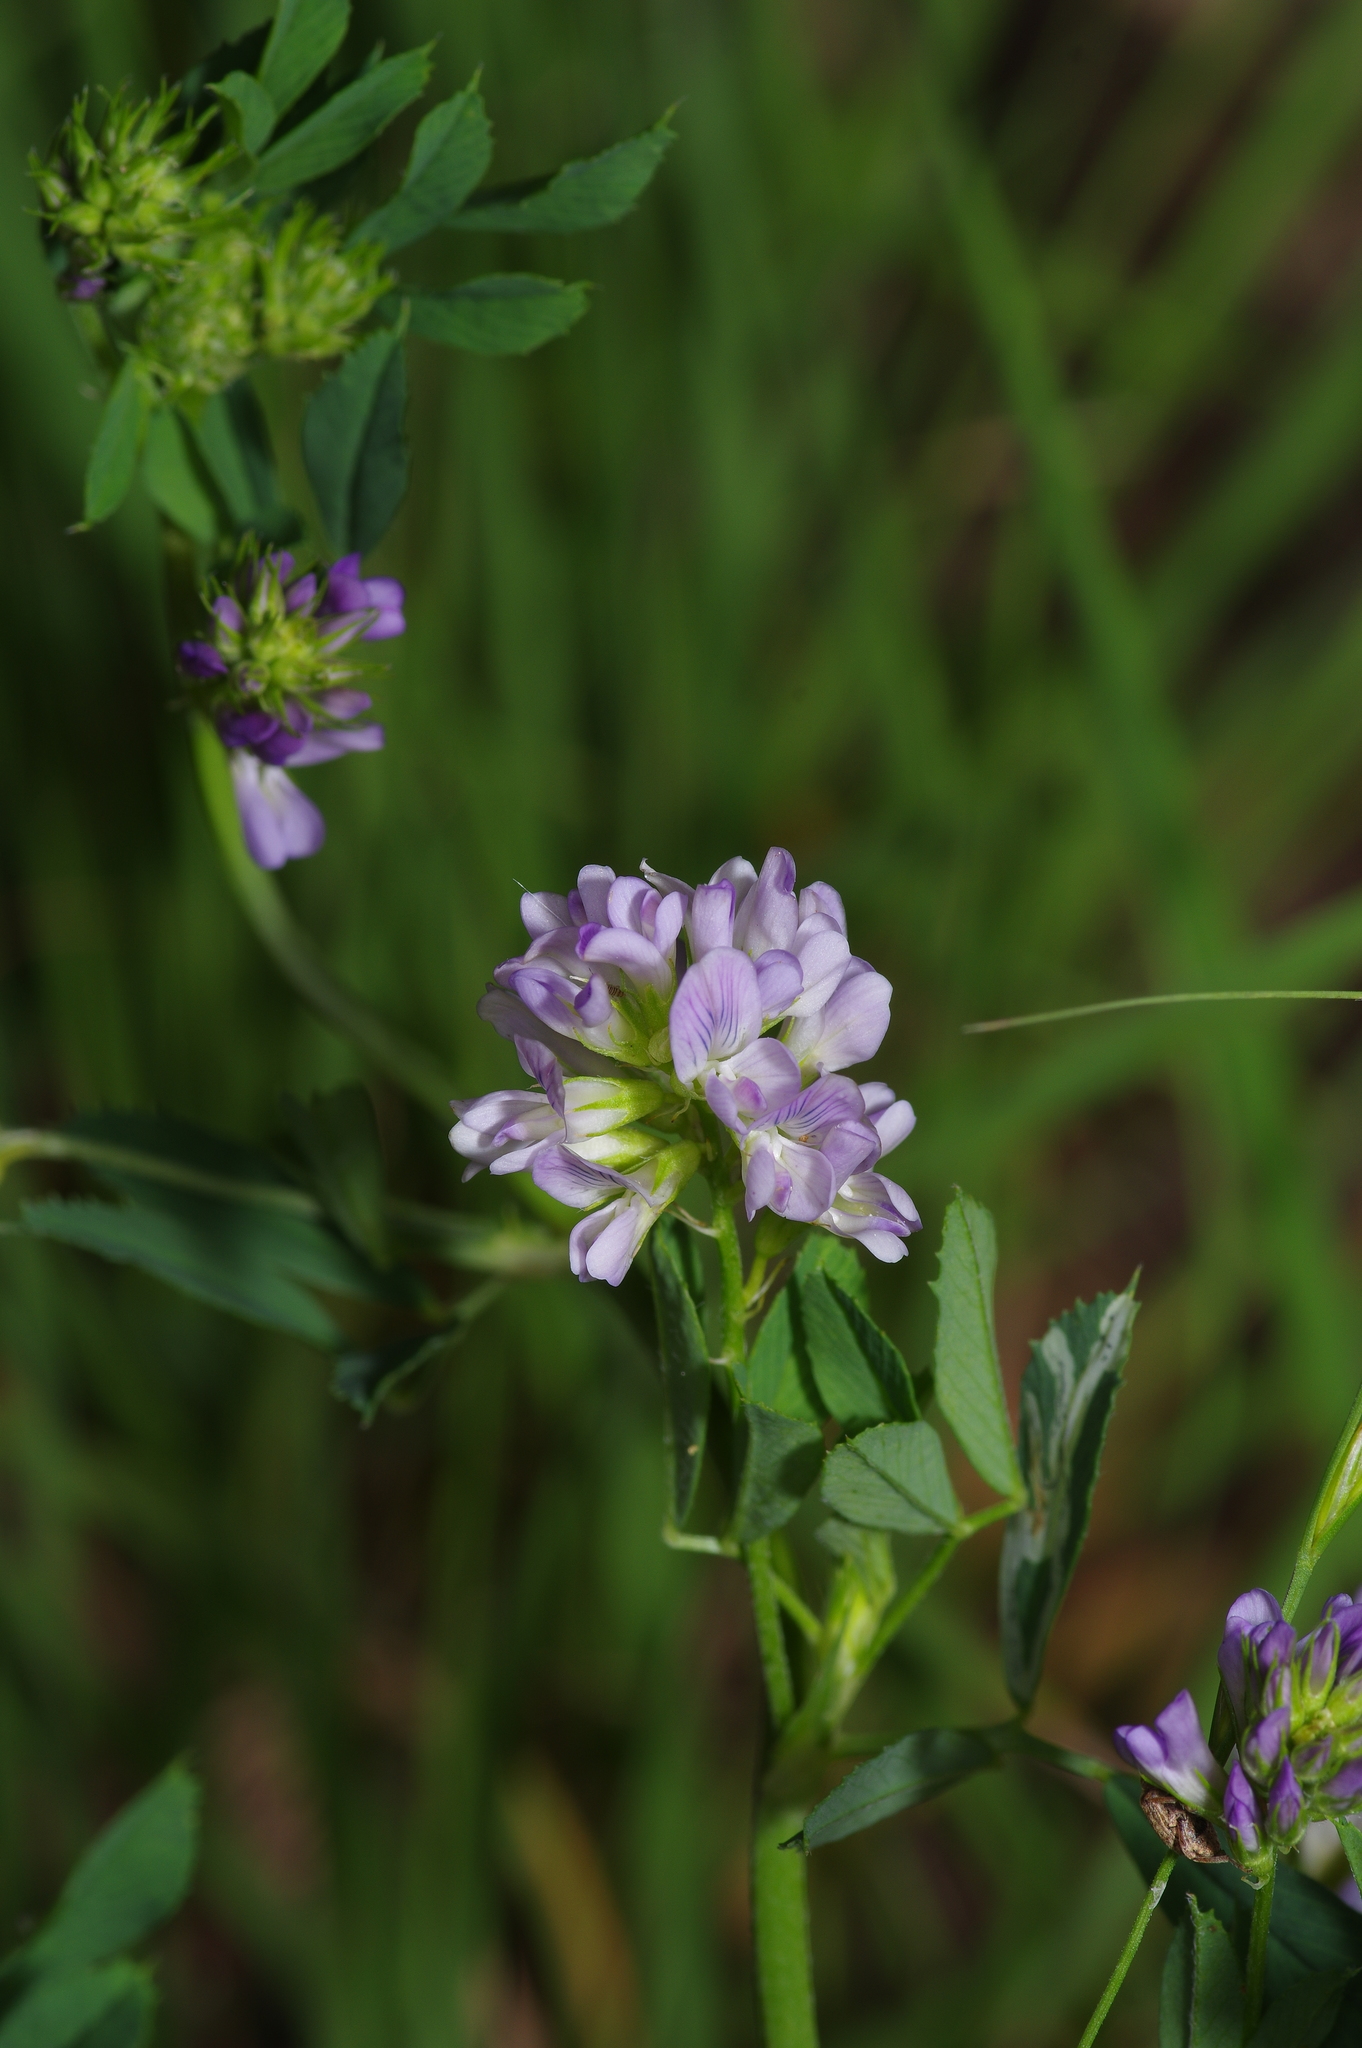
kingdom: Plantae
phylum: Tracheophyta
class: Magnoliopsida
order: Fabales
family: Fabaceae
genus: Medicago
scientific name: Medicago sativa
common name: Alfalfa
